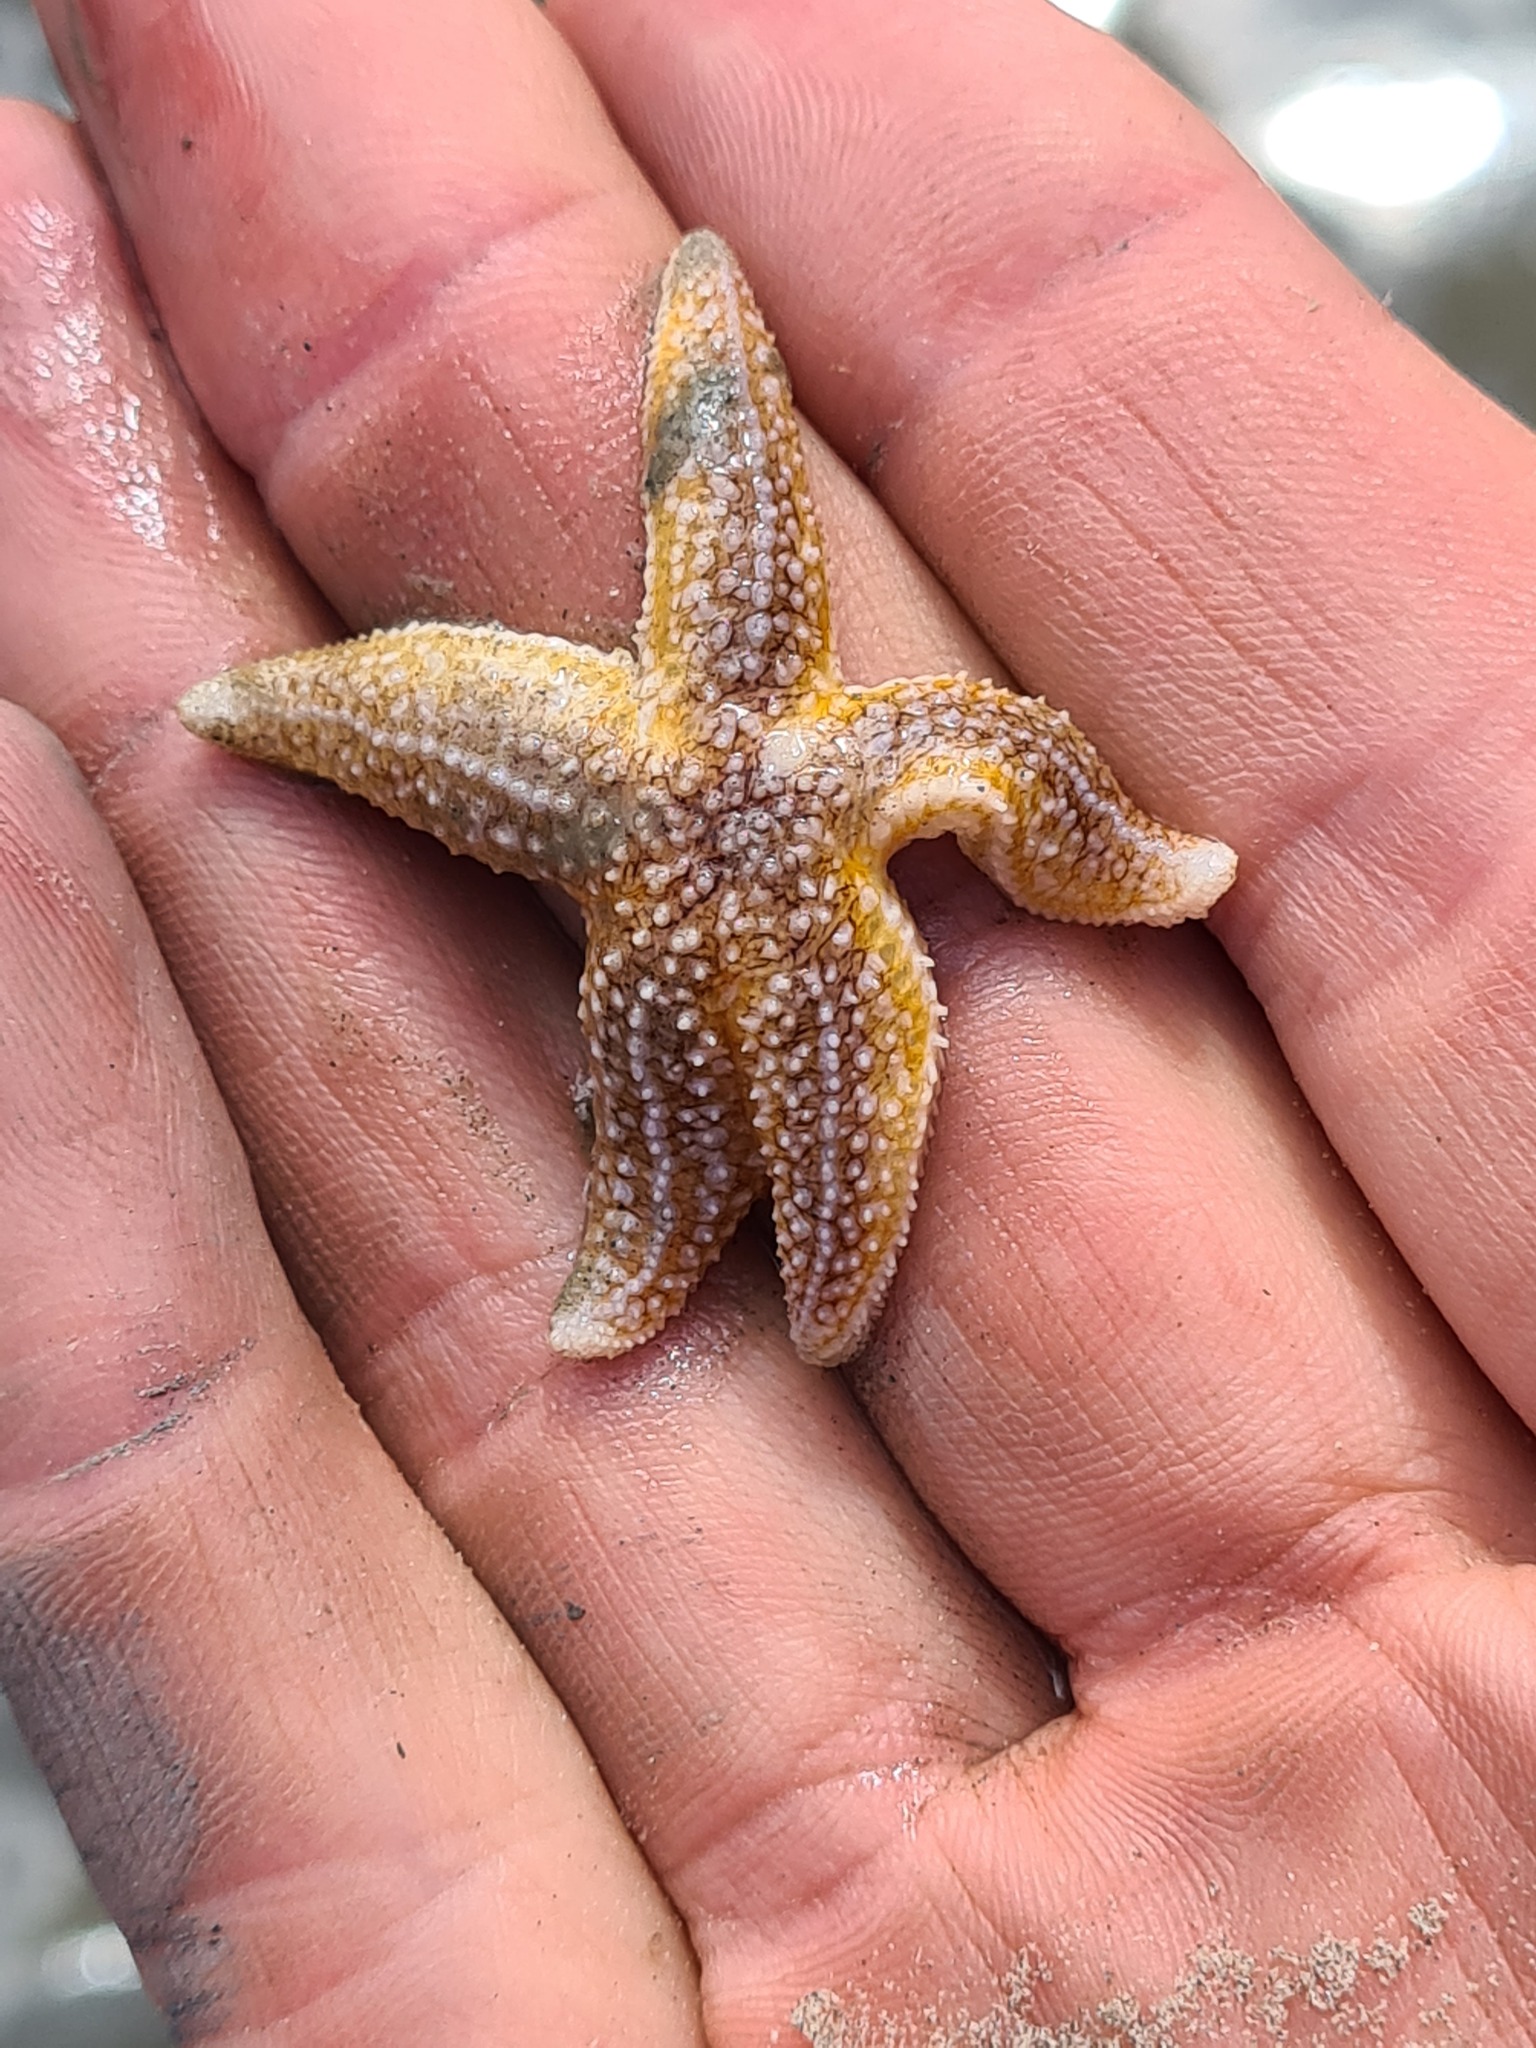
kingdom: Animalia
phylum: Echinodermata
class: Asteroidea
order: Forcipulatida
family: Asteriidae
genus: Asterias
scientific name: Asterias rubens
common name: Common starfish
